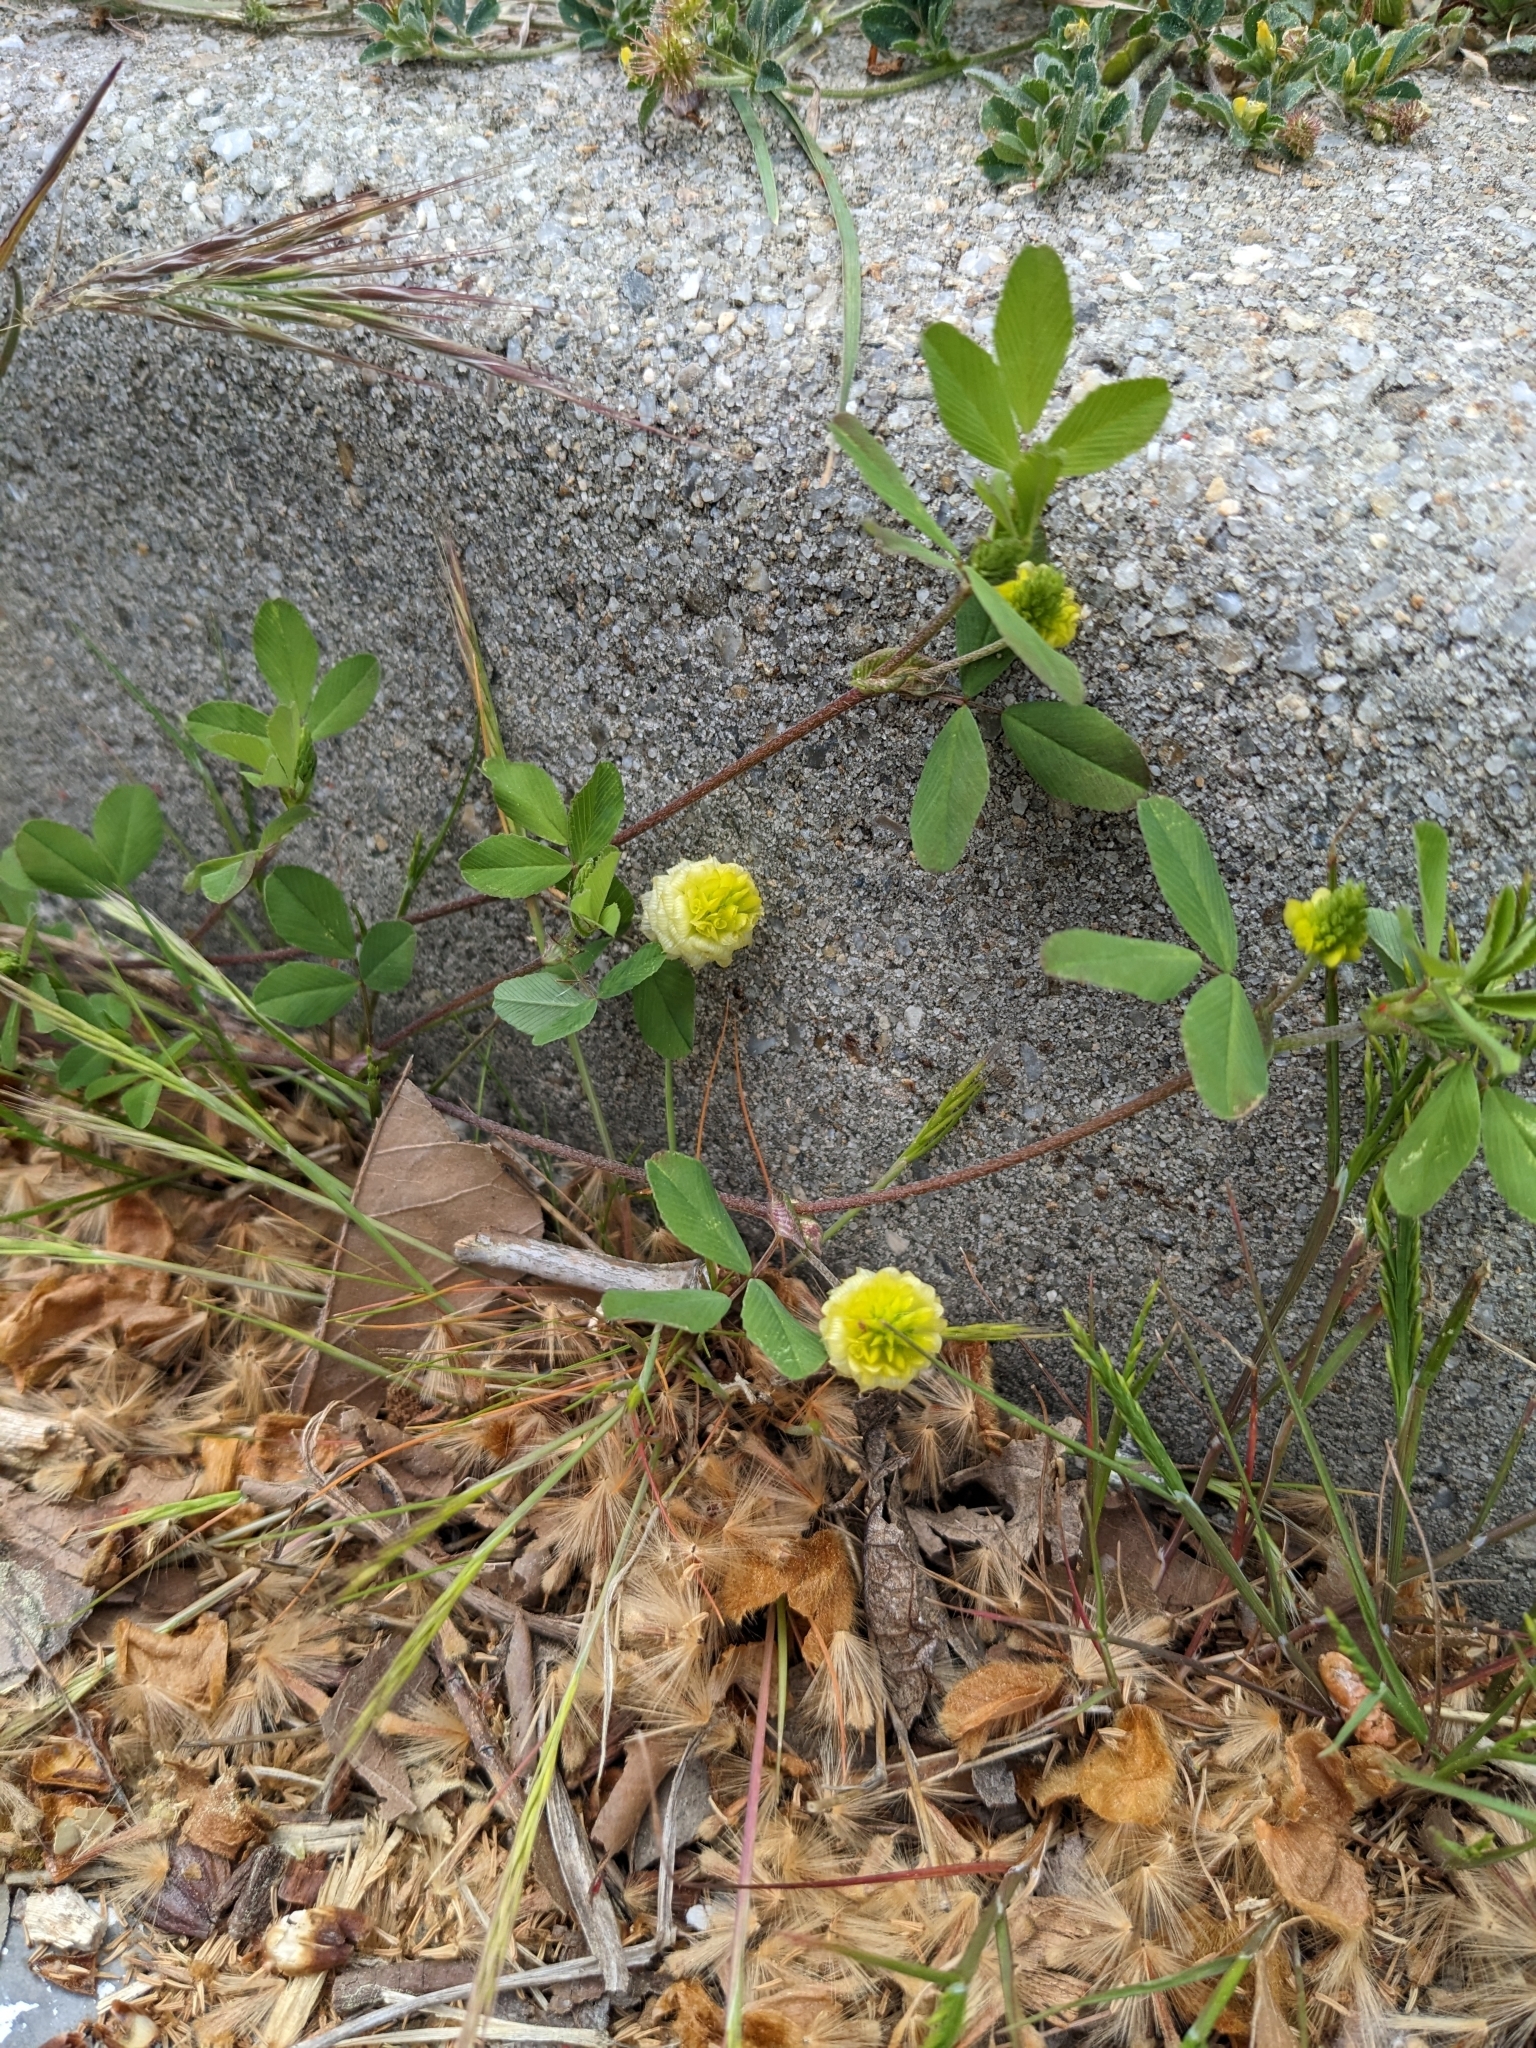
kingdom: Plantae
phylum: Tracheophyta
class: Magnoliopsida
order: Fabales
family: Fabaceae
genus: Trifolium
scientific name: Trifolium campestre
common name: Field clover
